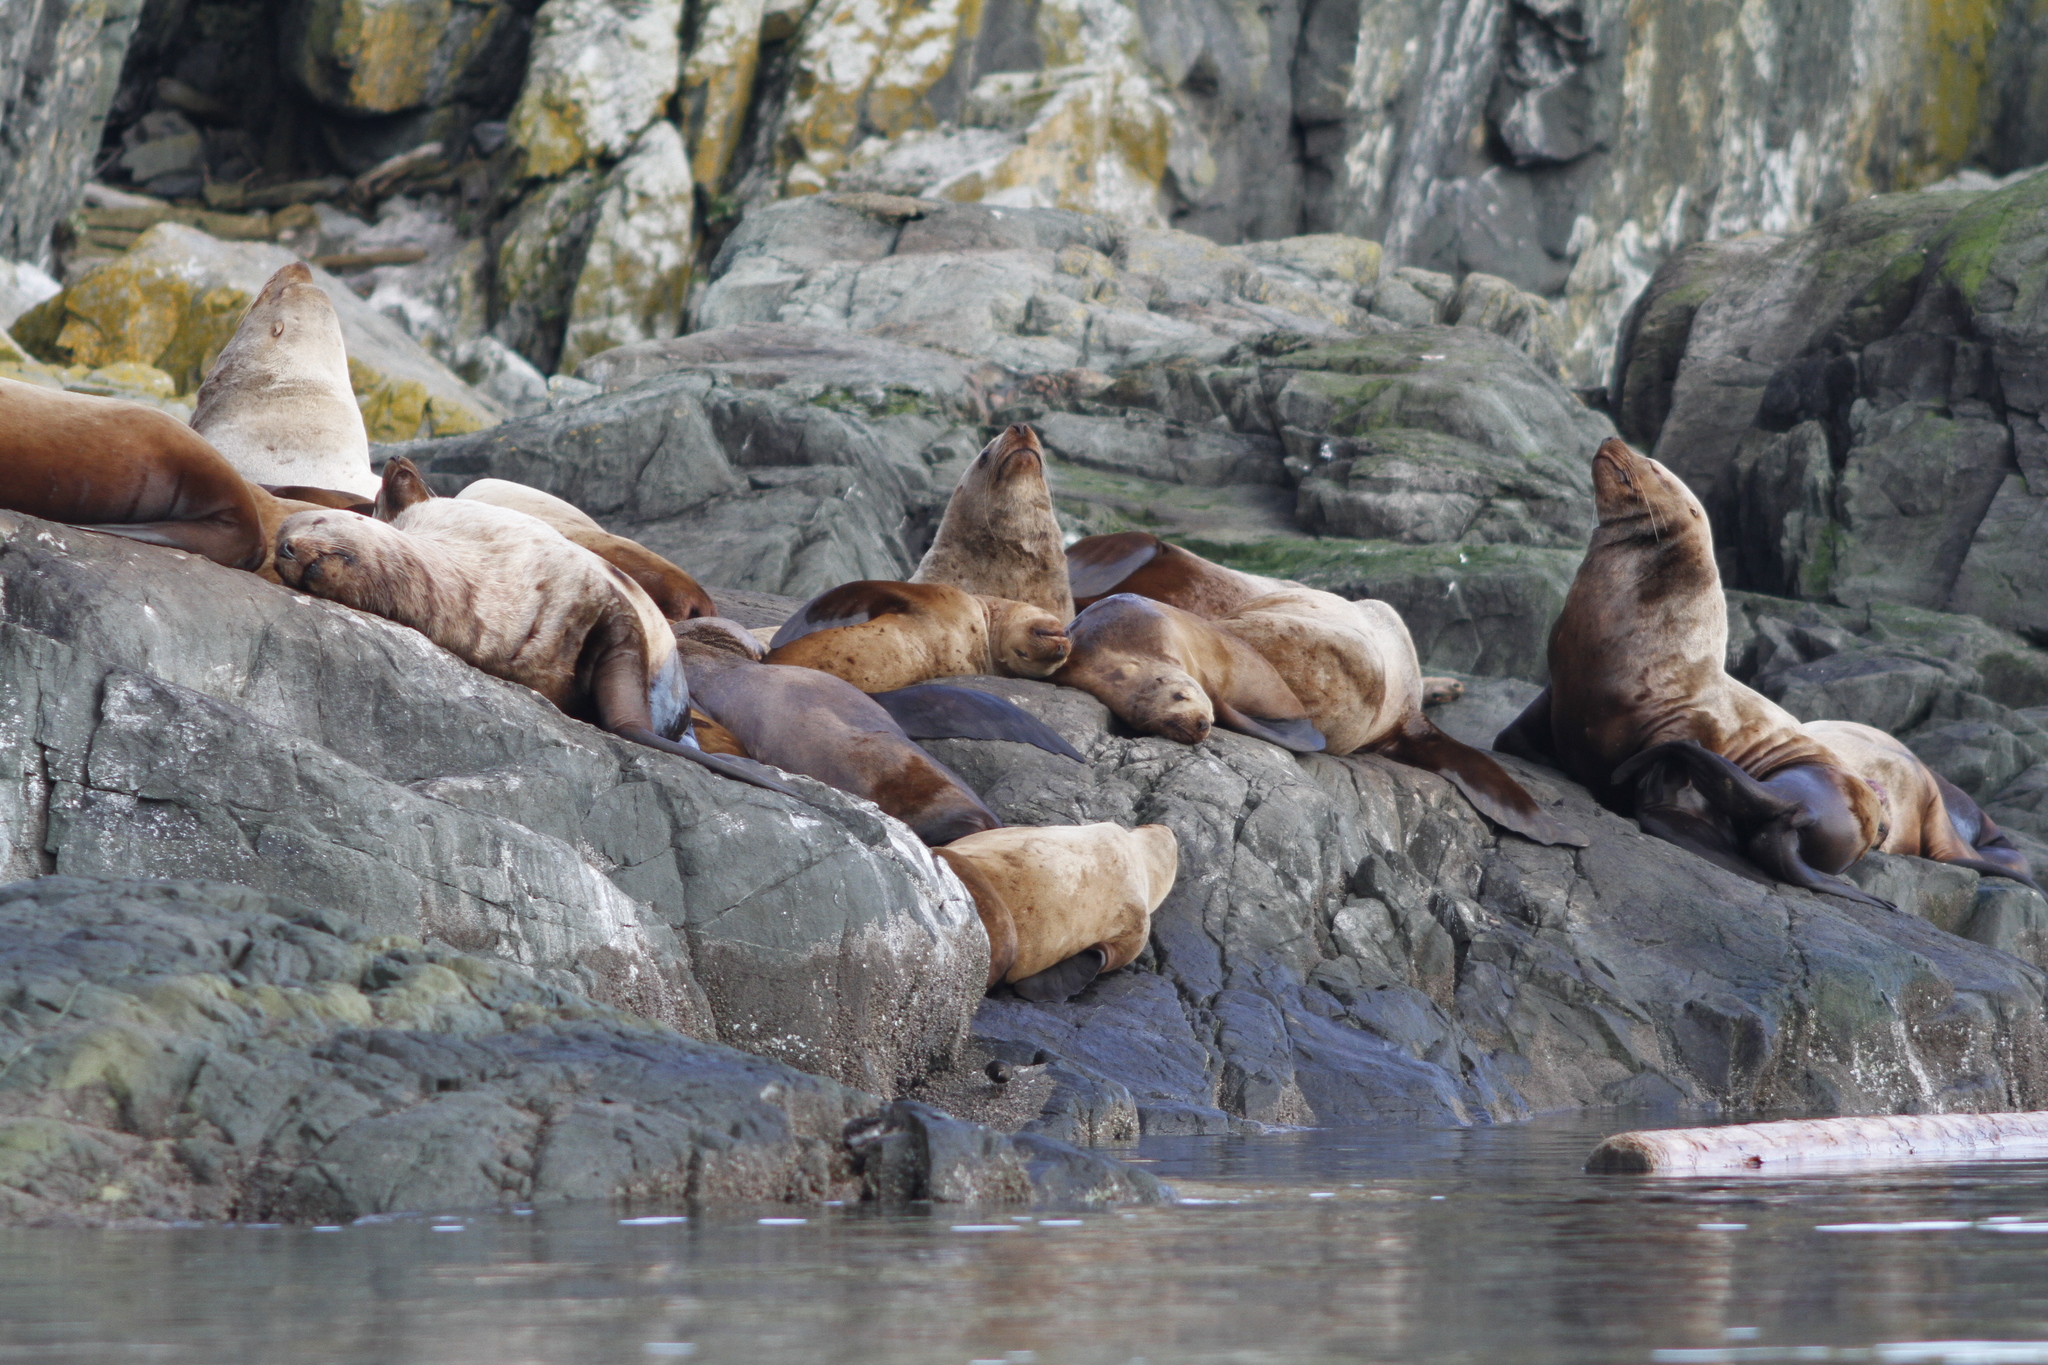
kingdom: Animalia
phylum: Chordata
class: Mammalia
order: Carnivora
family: Otariidae
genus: Eumetopias
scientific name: Eumetopias jubatus
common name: Steller sea lion
